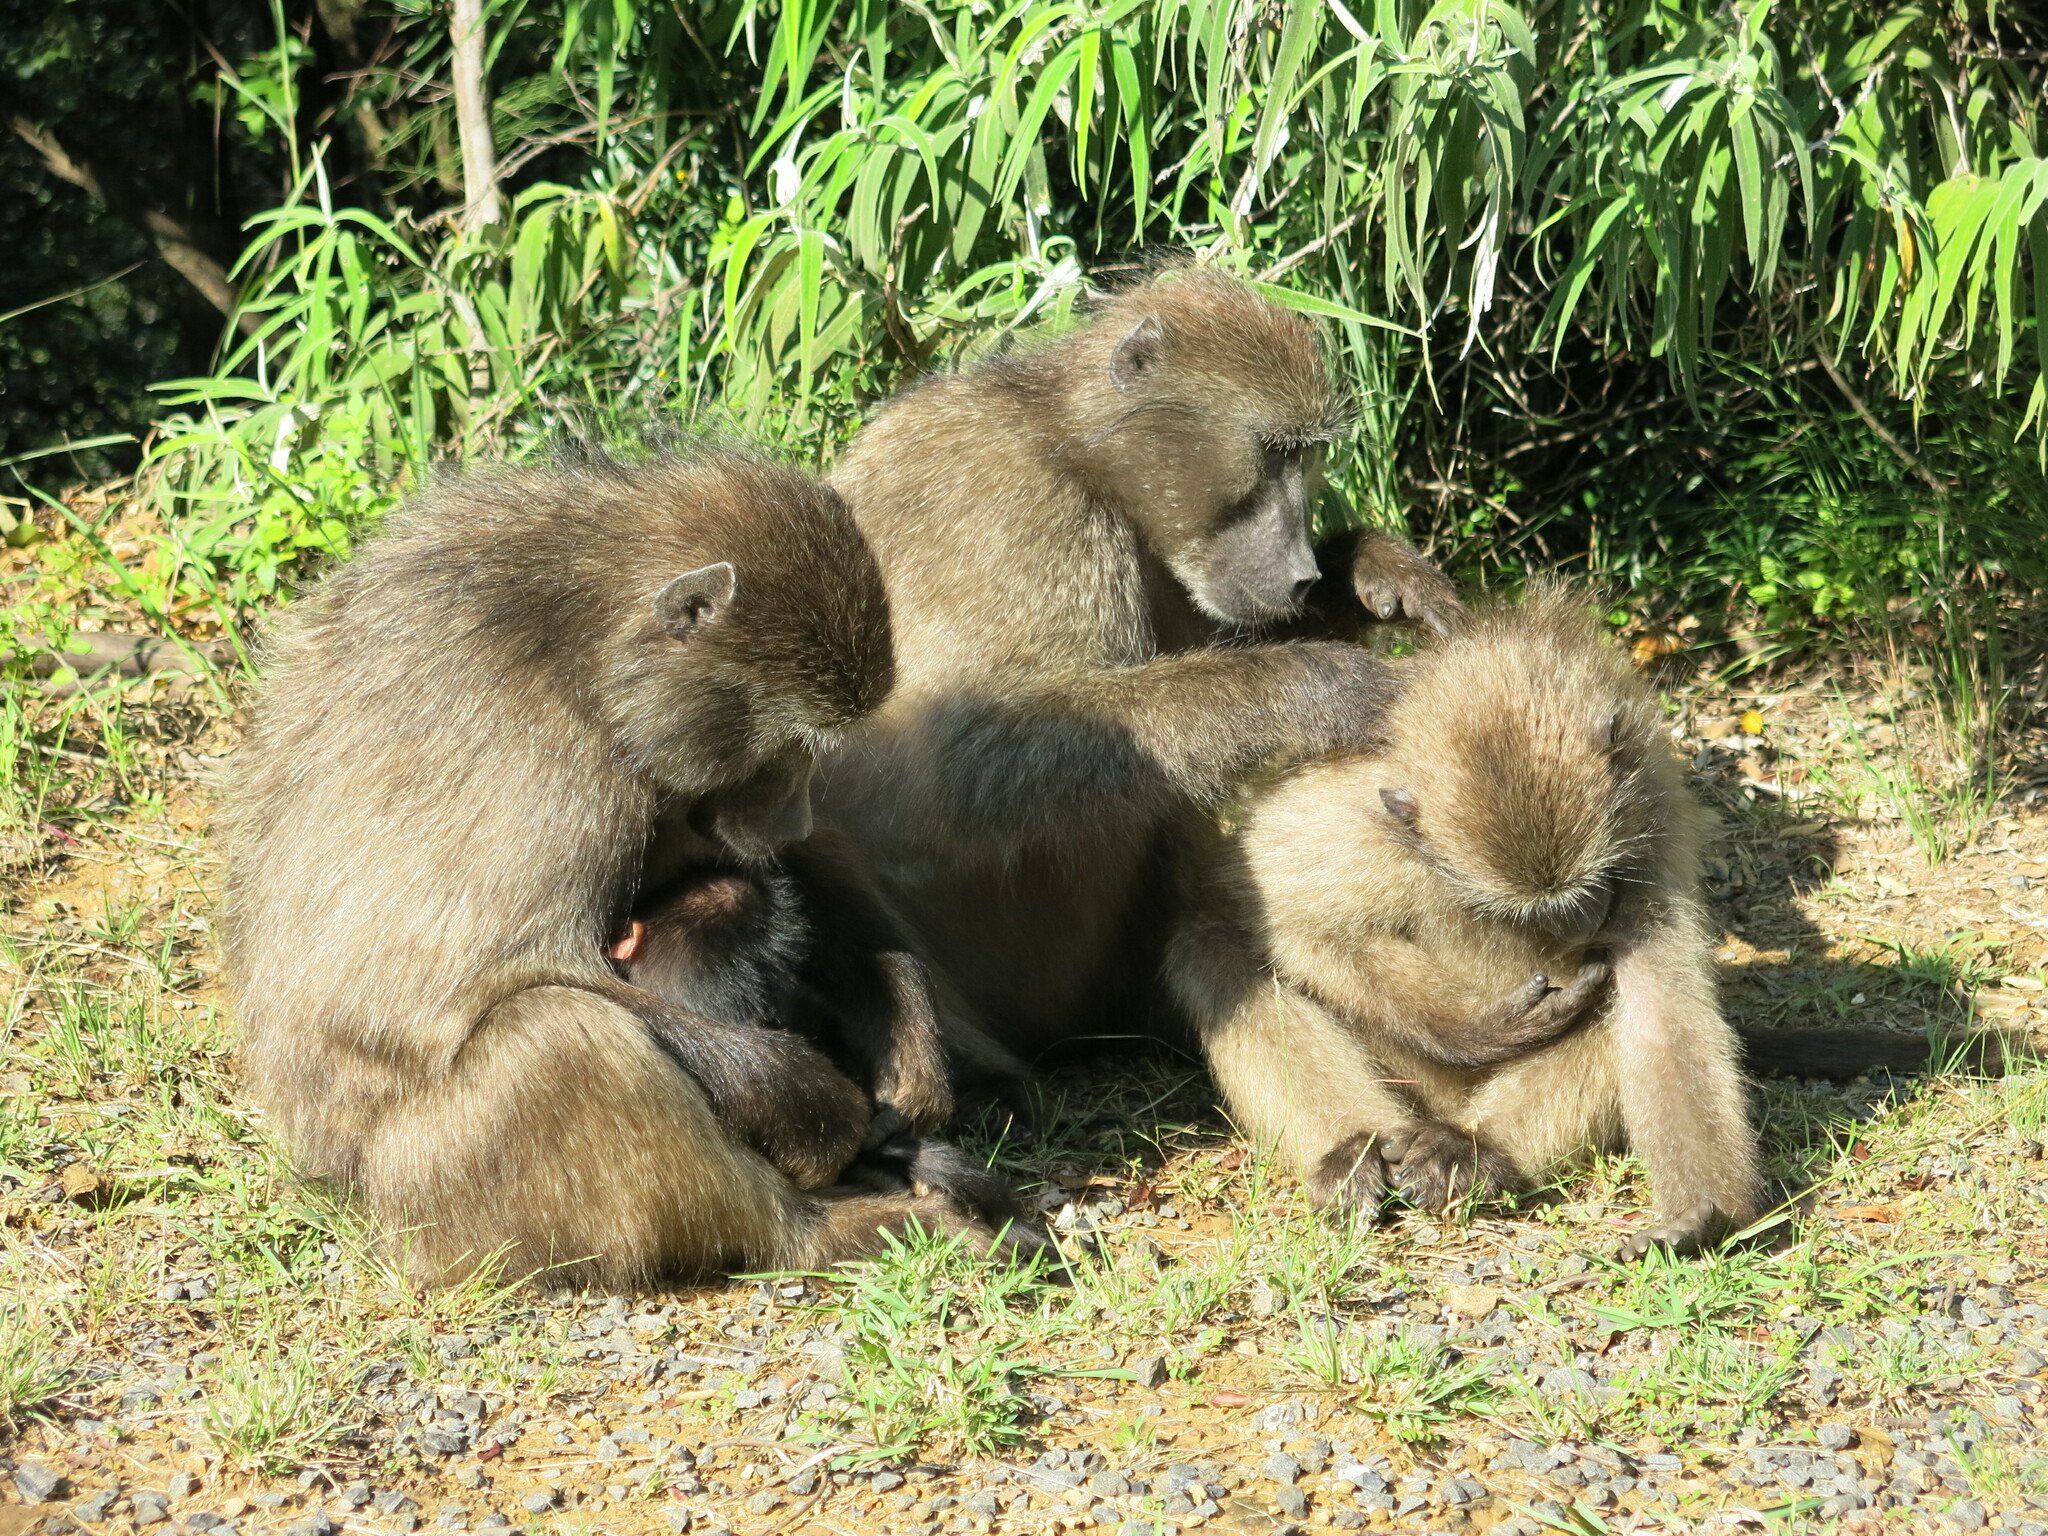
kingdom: Animalia
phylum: Chordata
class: Mammalia
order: Primates
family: Cercopithecidae
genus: Papio
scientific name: Papio ursinus
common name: Chacma baboon
